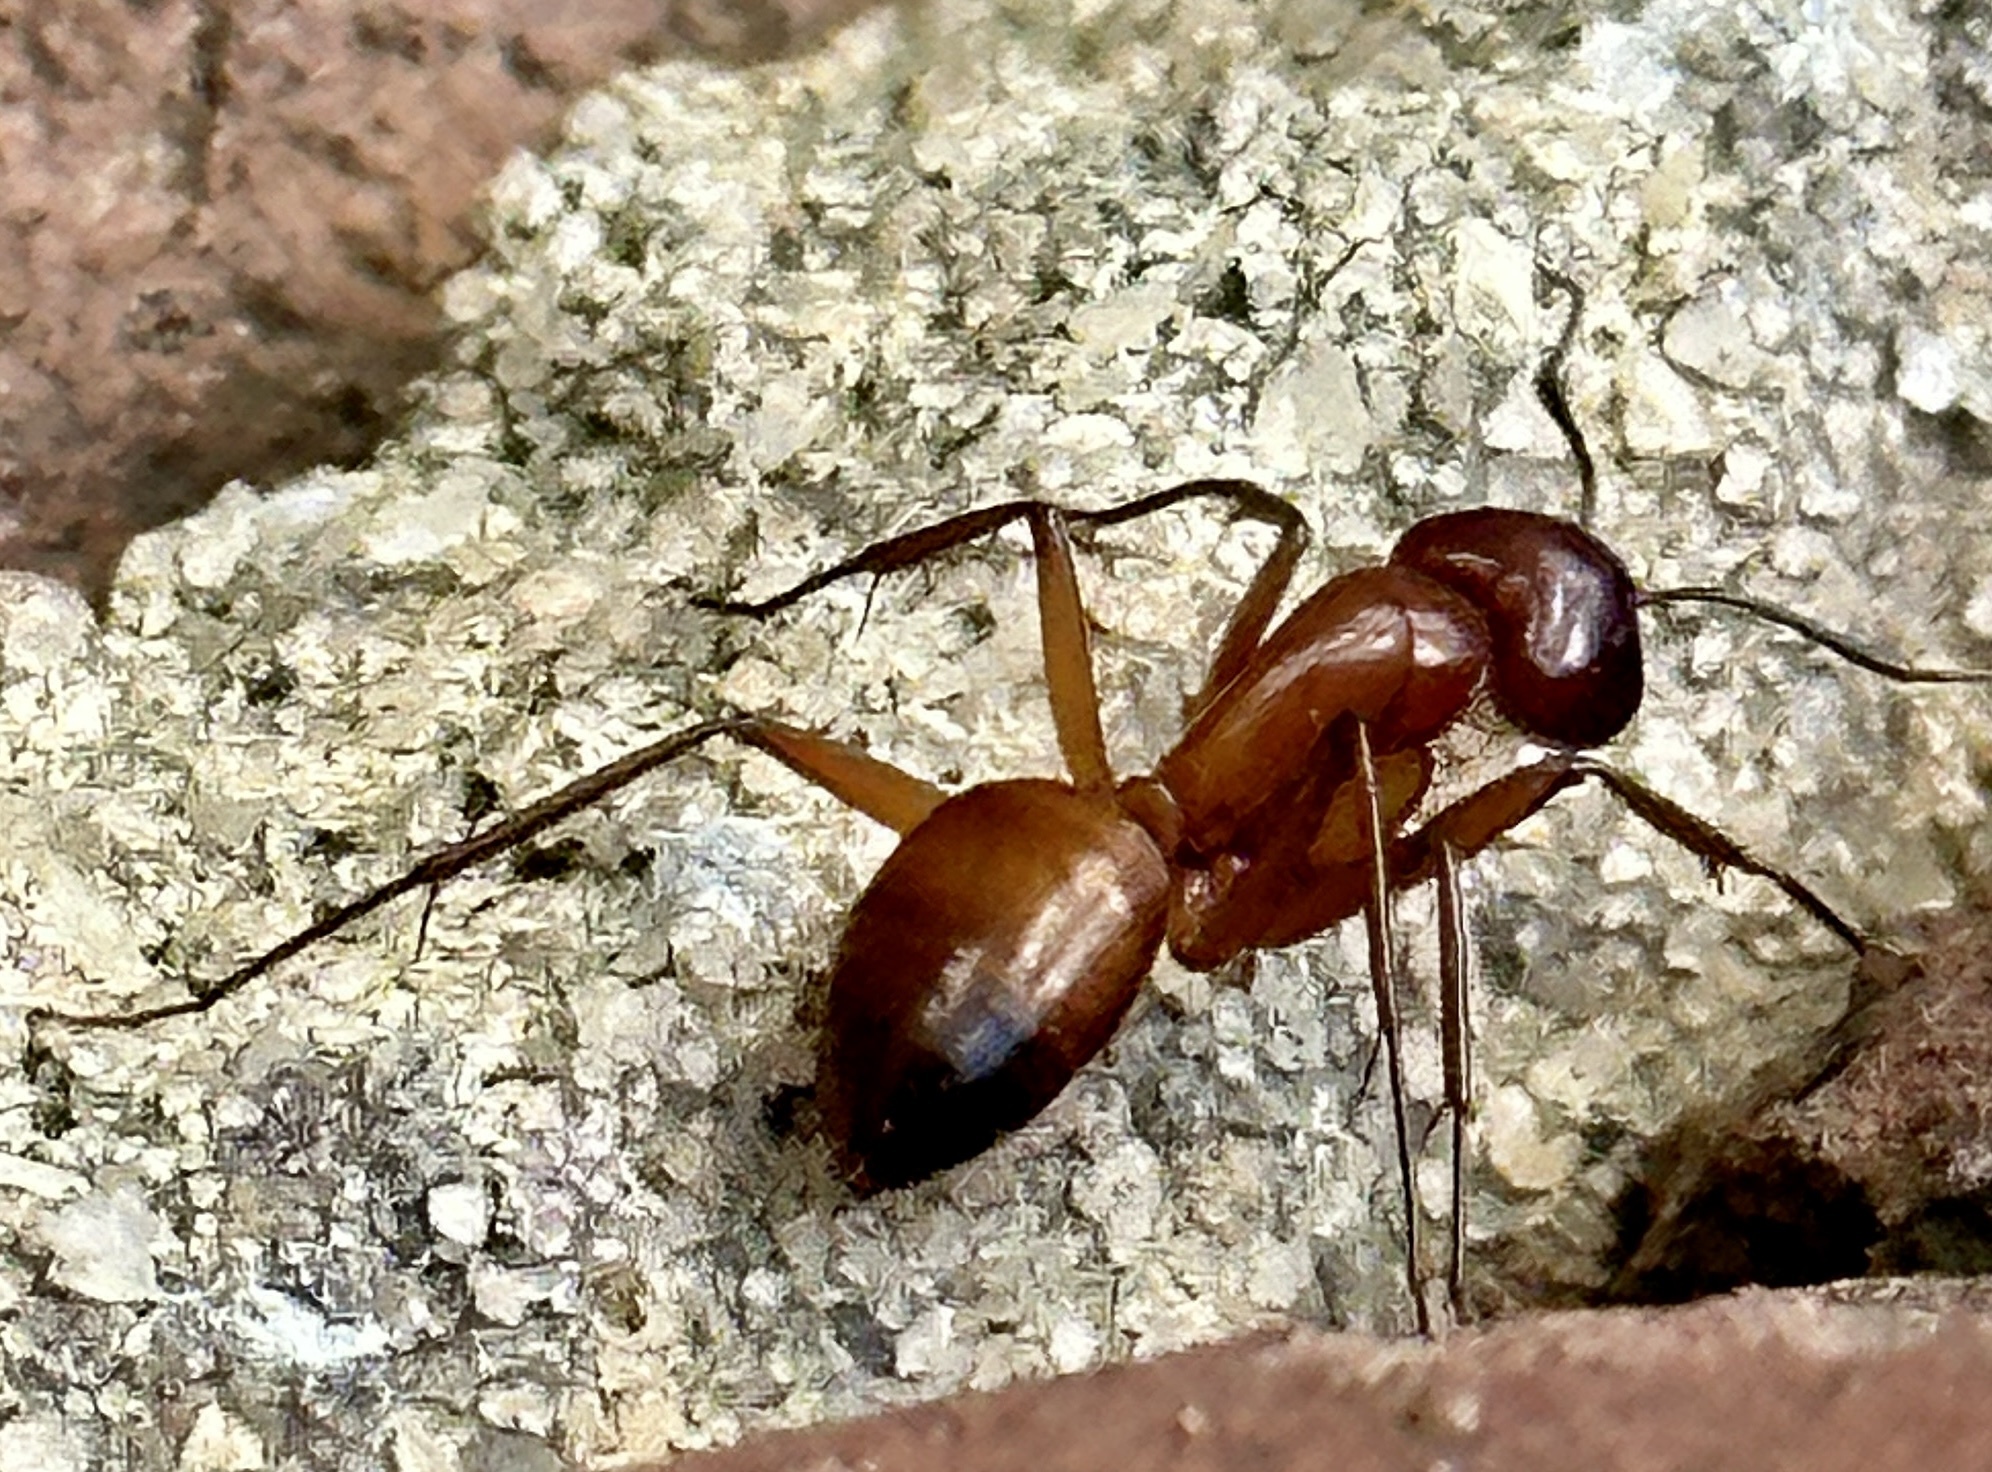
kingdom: Animalia
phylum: Arthropoda
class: Insecta
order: Hymenoptera
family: Formicidae
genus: Camponotus
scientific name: Camponotus castaneus
